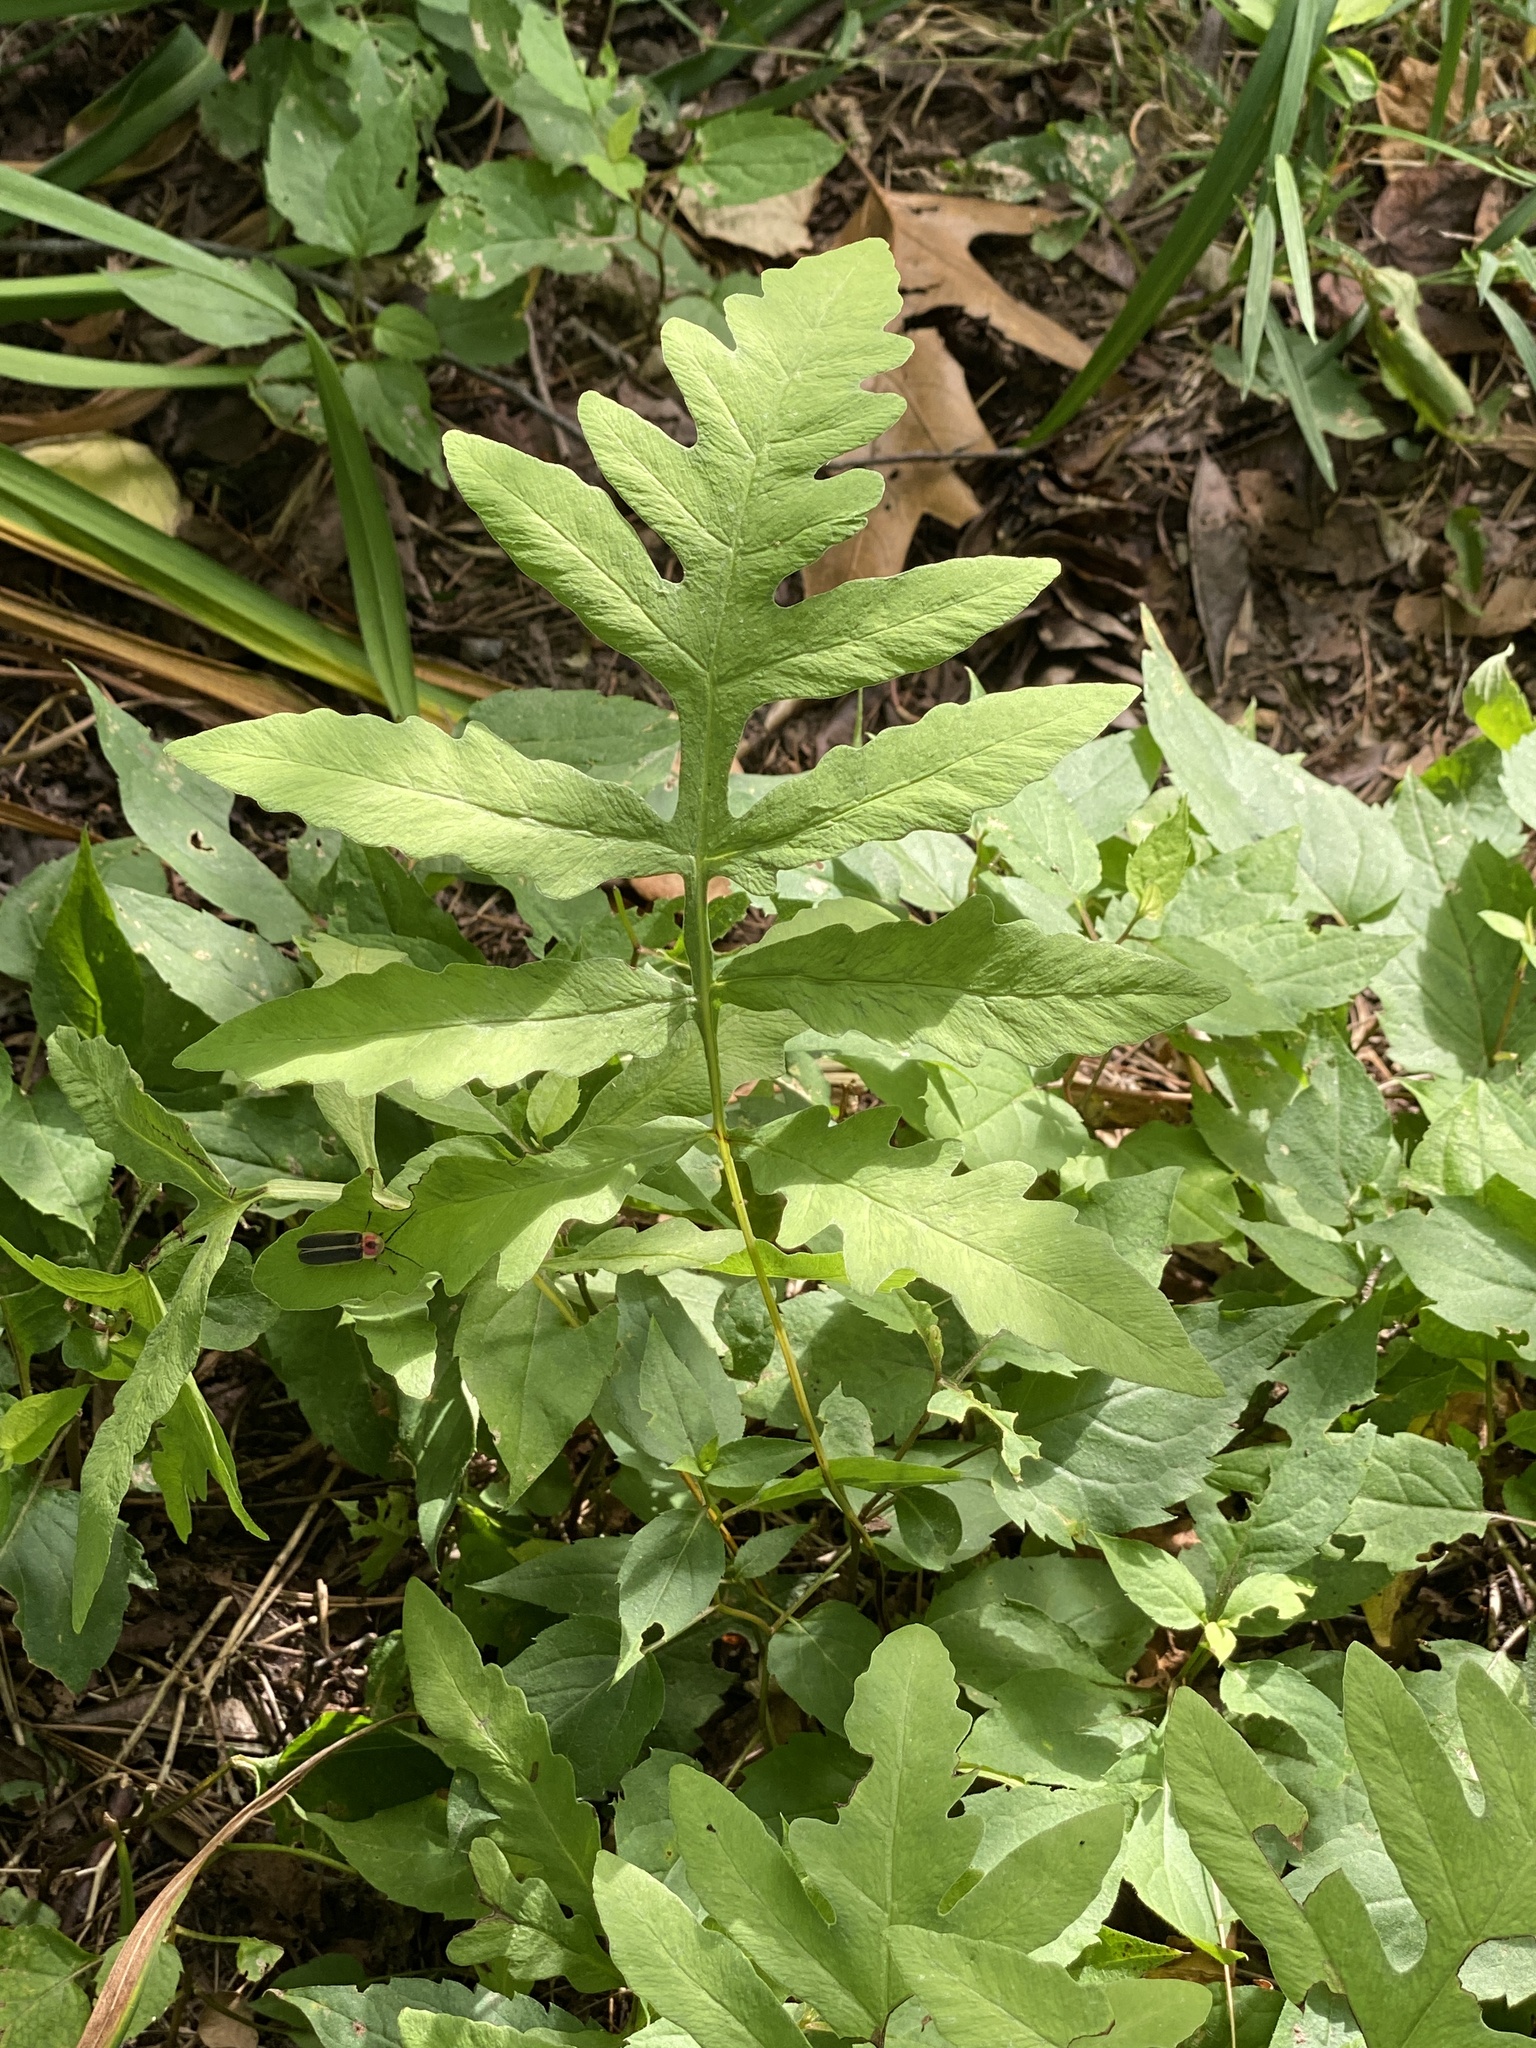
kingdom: Plantae
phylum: Tracheophyta
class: Polypodiopsida
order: Polypodiales
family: Onocleaceae
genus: Onoclea
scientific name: Onoclea sensibilis
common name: Sensitive fern
